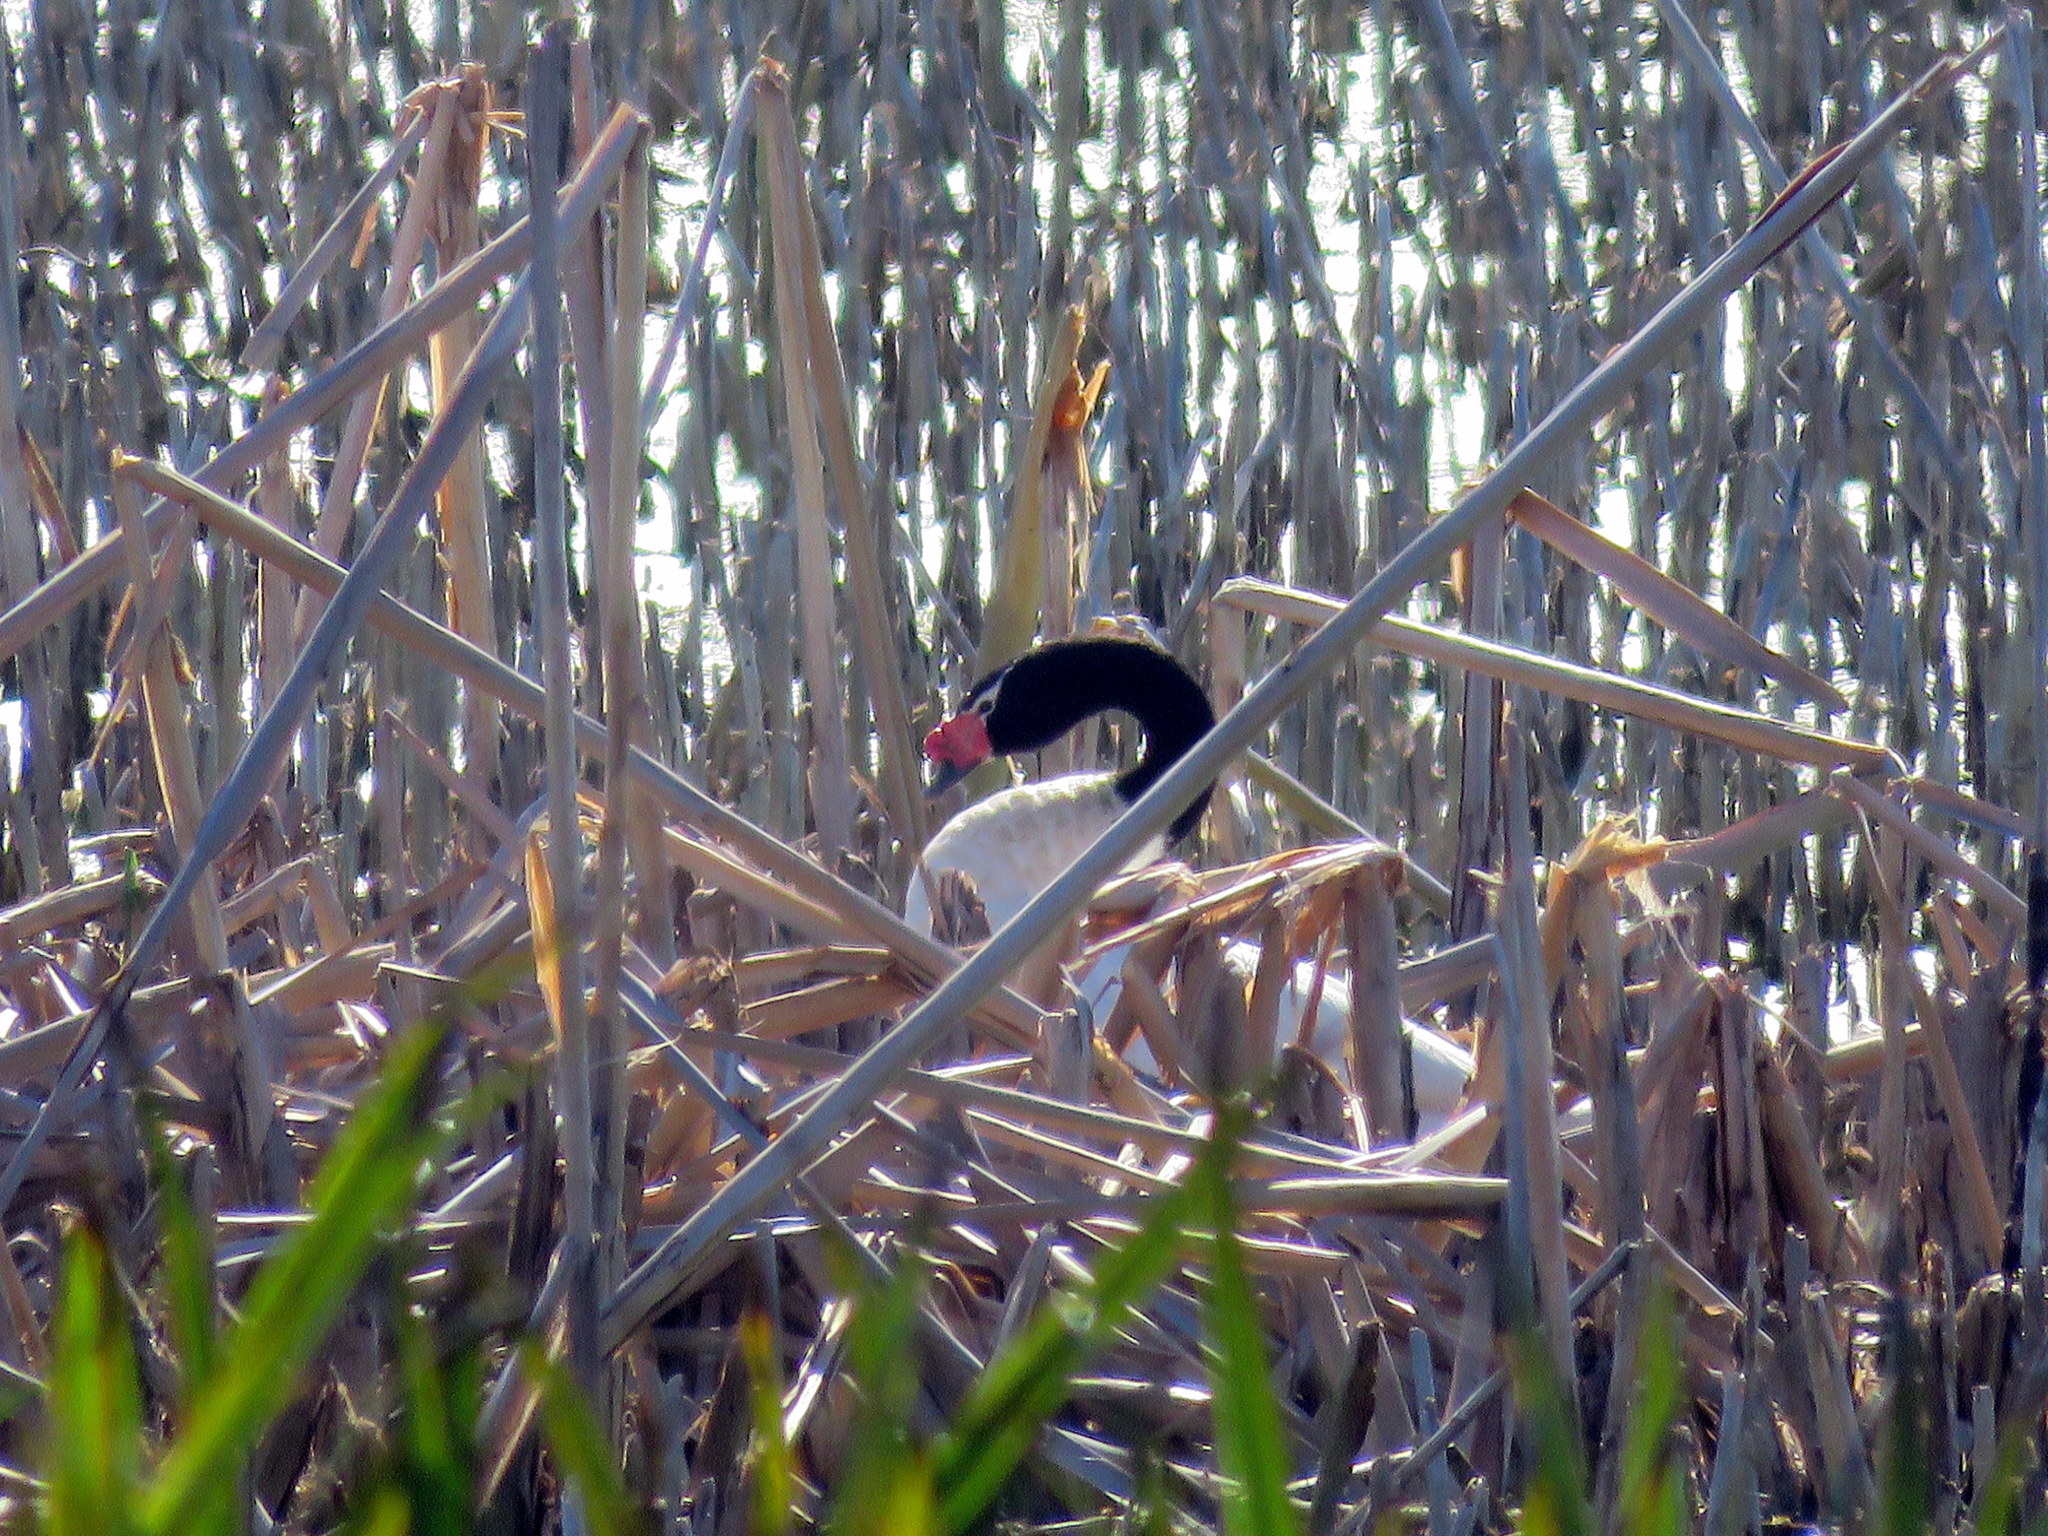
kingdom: Animalia
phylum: Chordata
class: Aves
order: Anseriformes
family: Anatidae
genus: Cygnus
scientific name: Cygnus melancoryphus
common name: Black-necked swan
